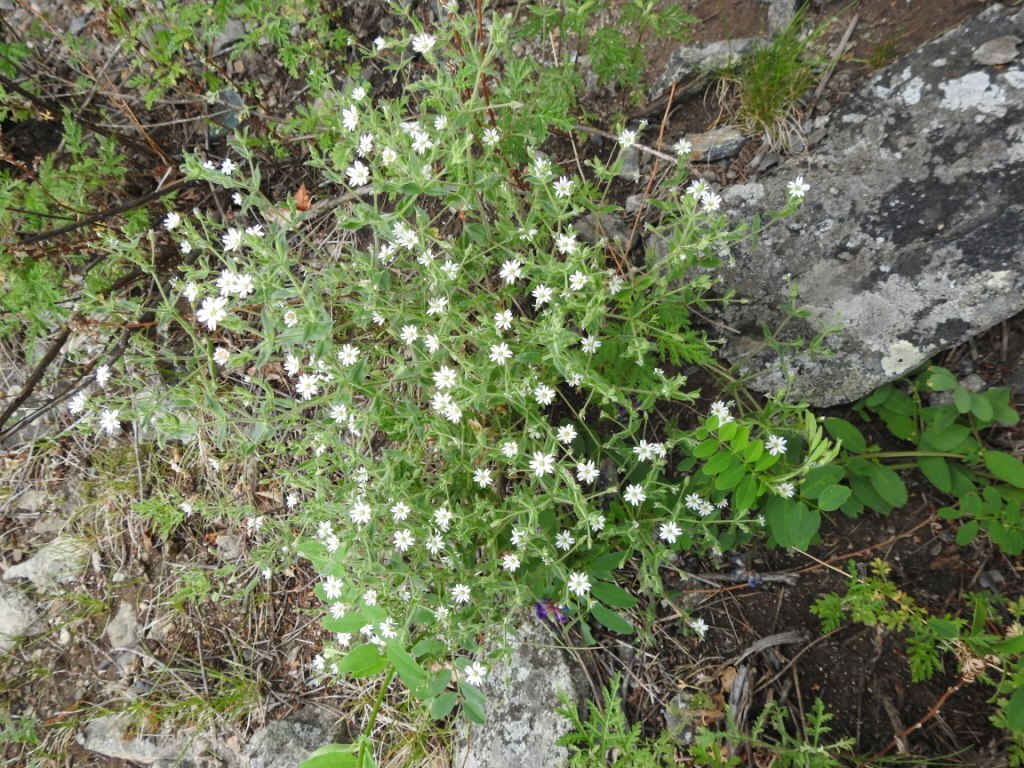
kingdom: Plantae
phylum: Tracheophyta
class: Magnoliopsida
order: Caryophyllales
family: Caryophyllaceae
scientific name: Caryophyllaceae
